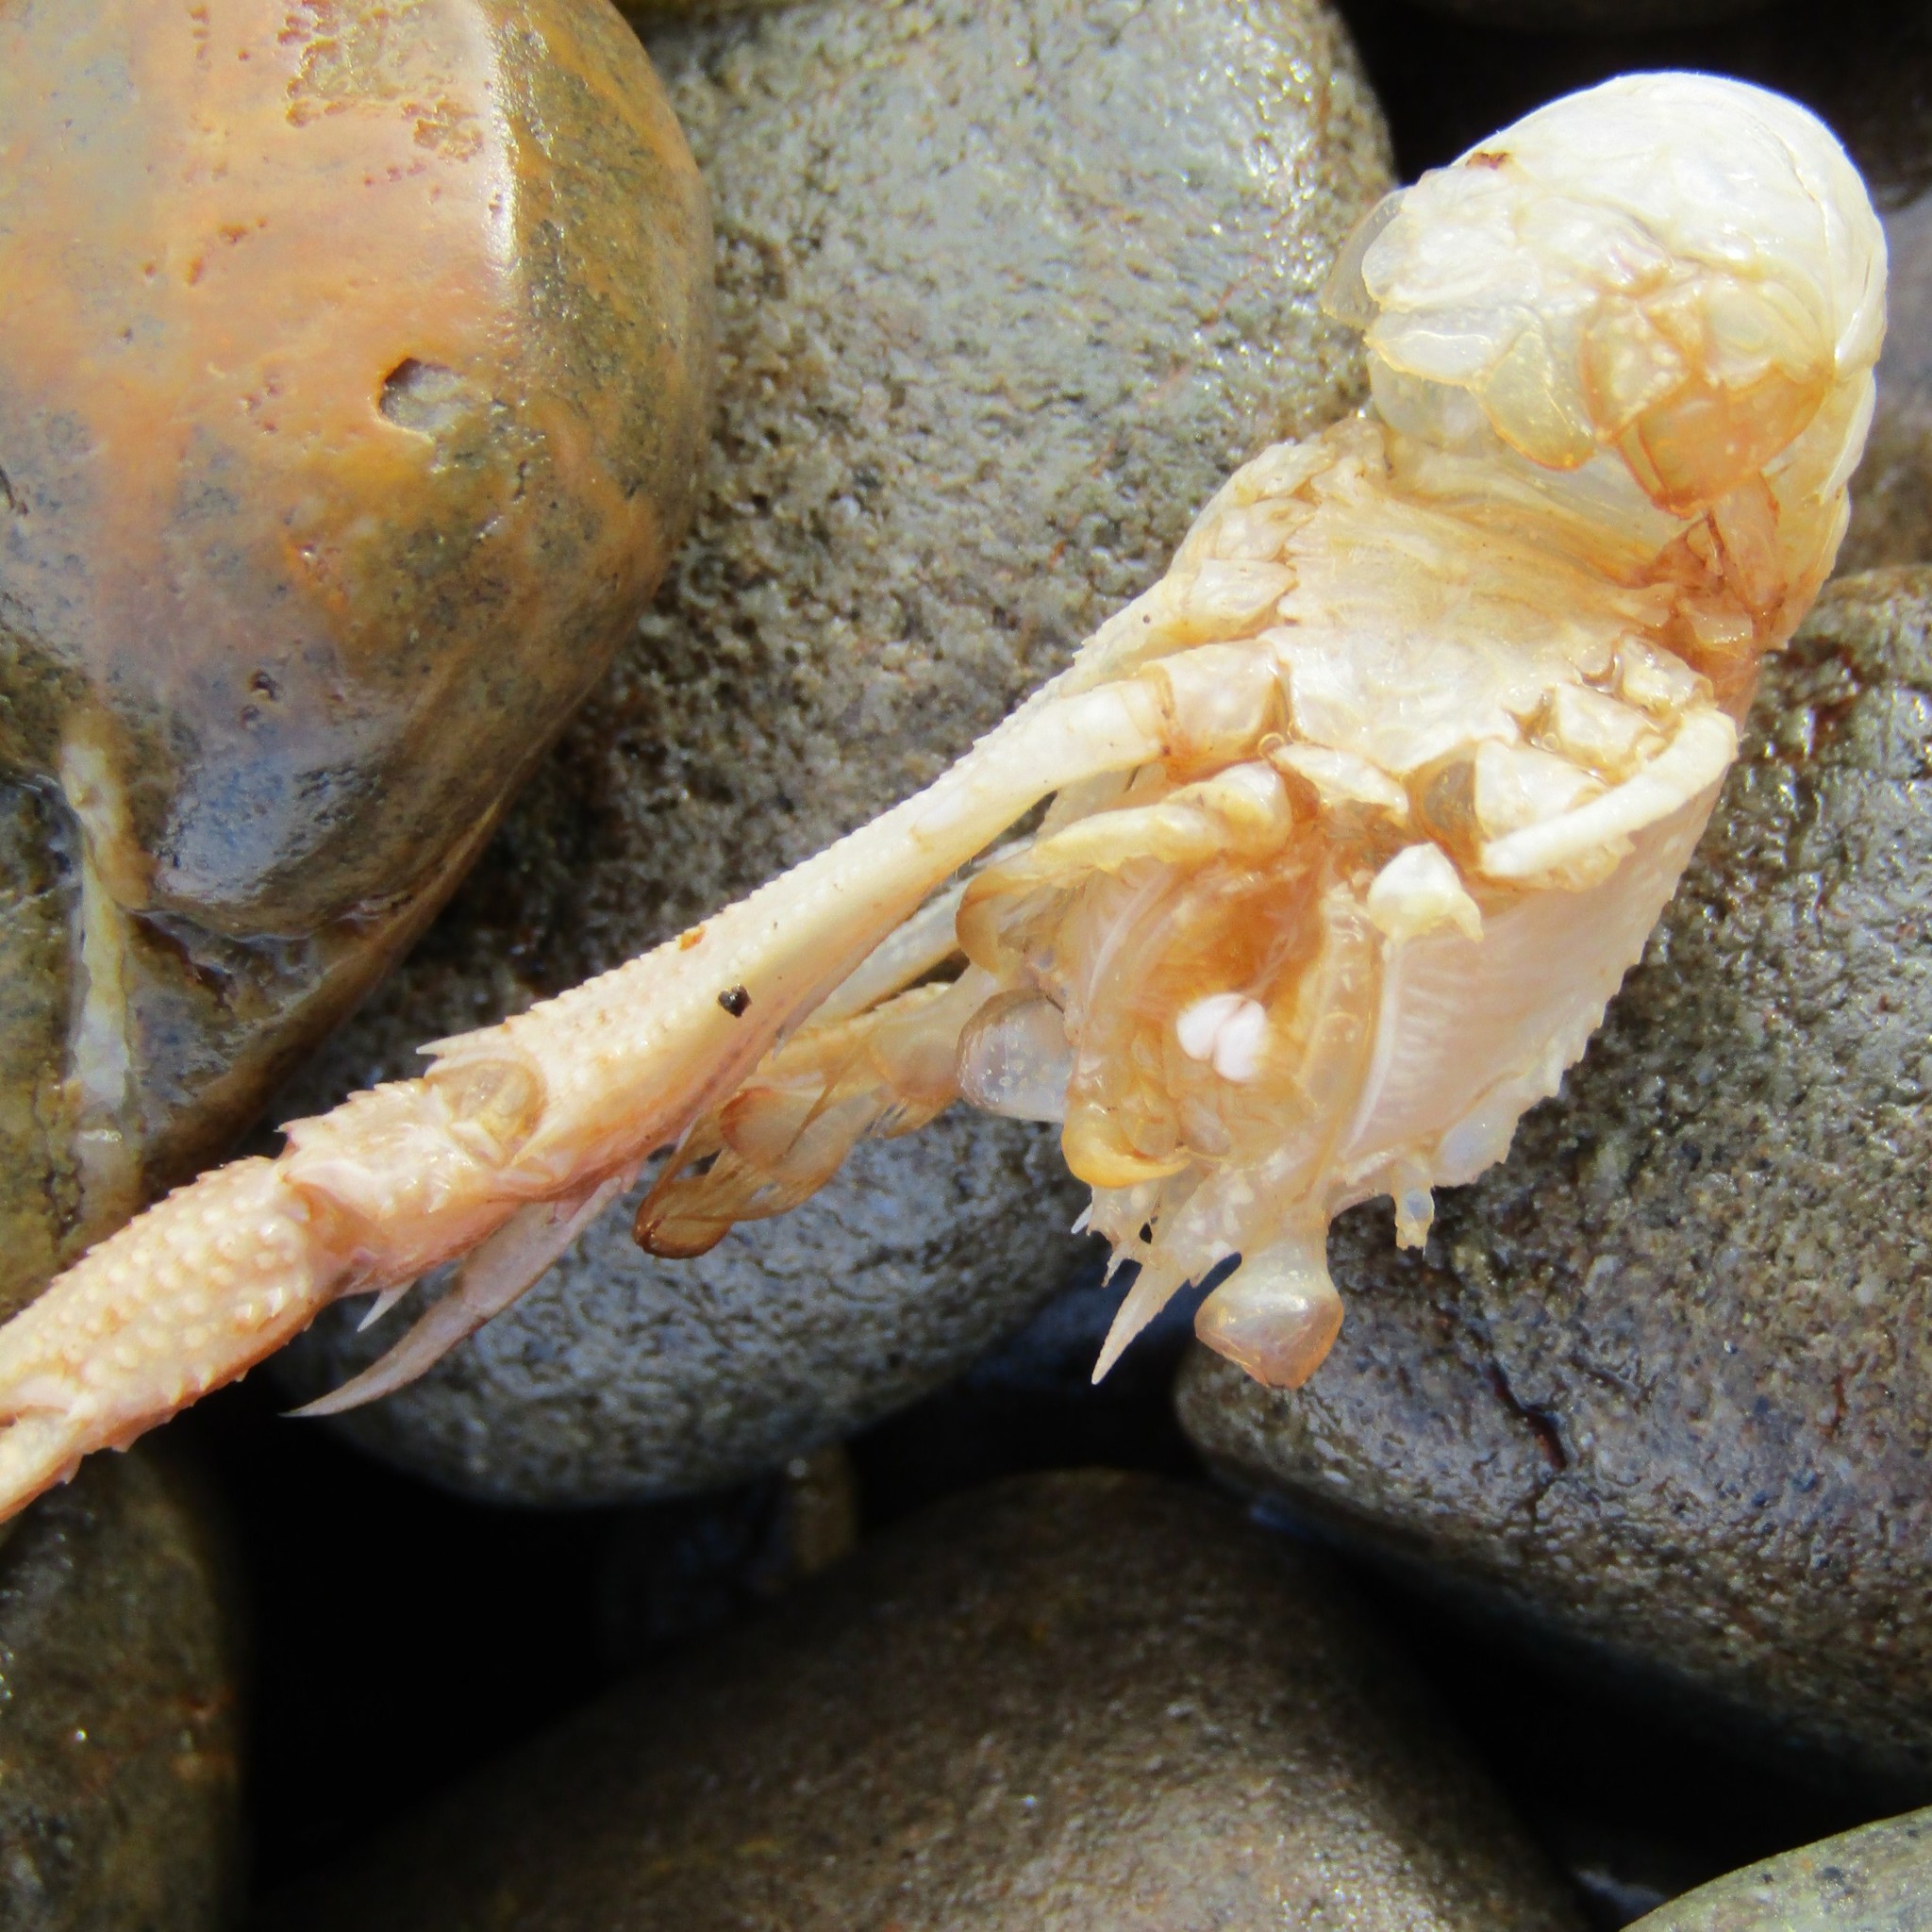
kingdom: Animalia
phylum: Arthropoda
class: Malacostraca
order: Decapoda
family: Munididae
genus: Grimothea
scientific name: Grimothea gregaria
